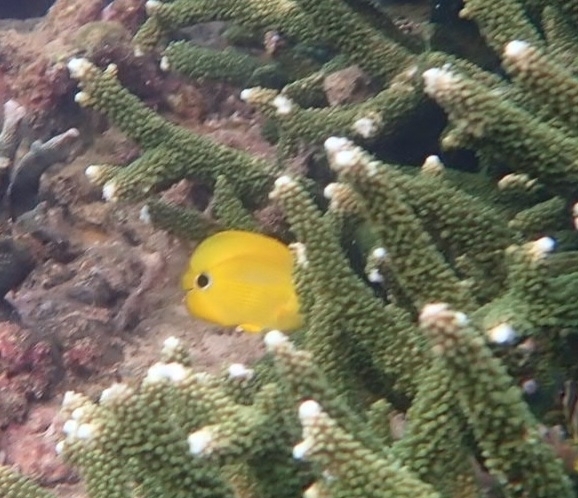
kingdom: Animalia
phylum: Chordata
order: Perciformes
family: Chaetodontidae
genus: Chaetodon
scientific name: Chaetodon andamanensis
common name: Yellow butterflyfish
